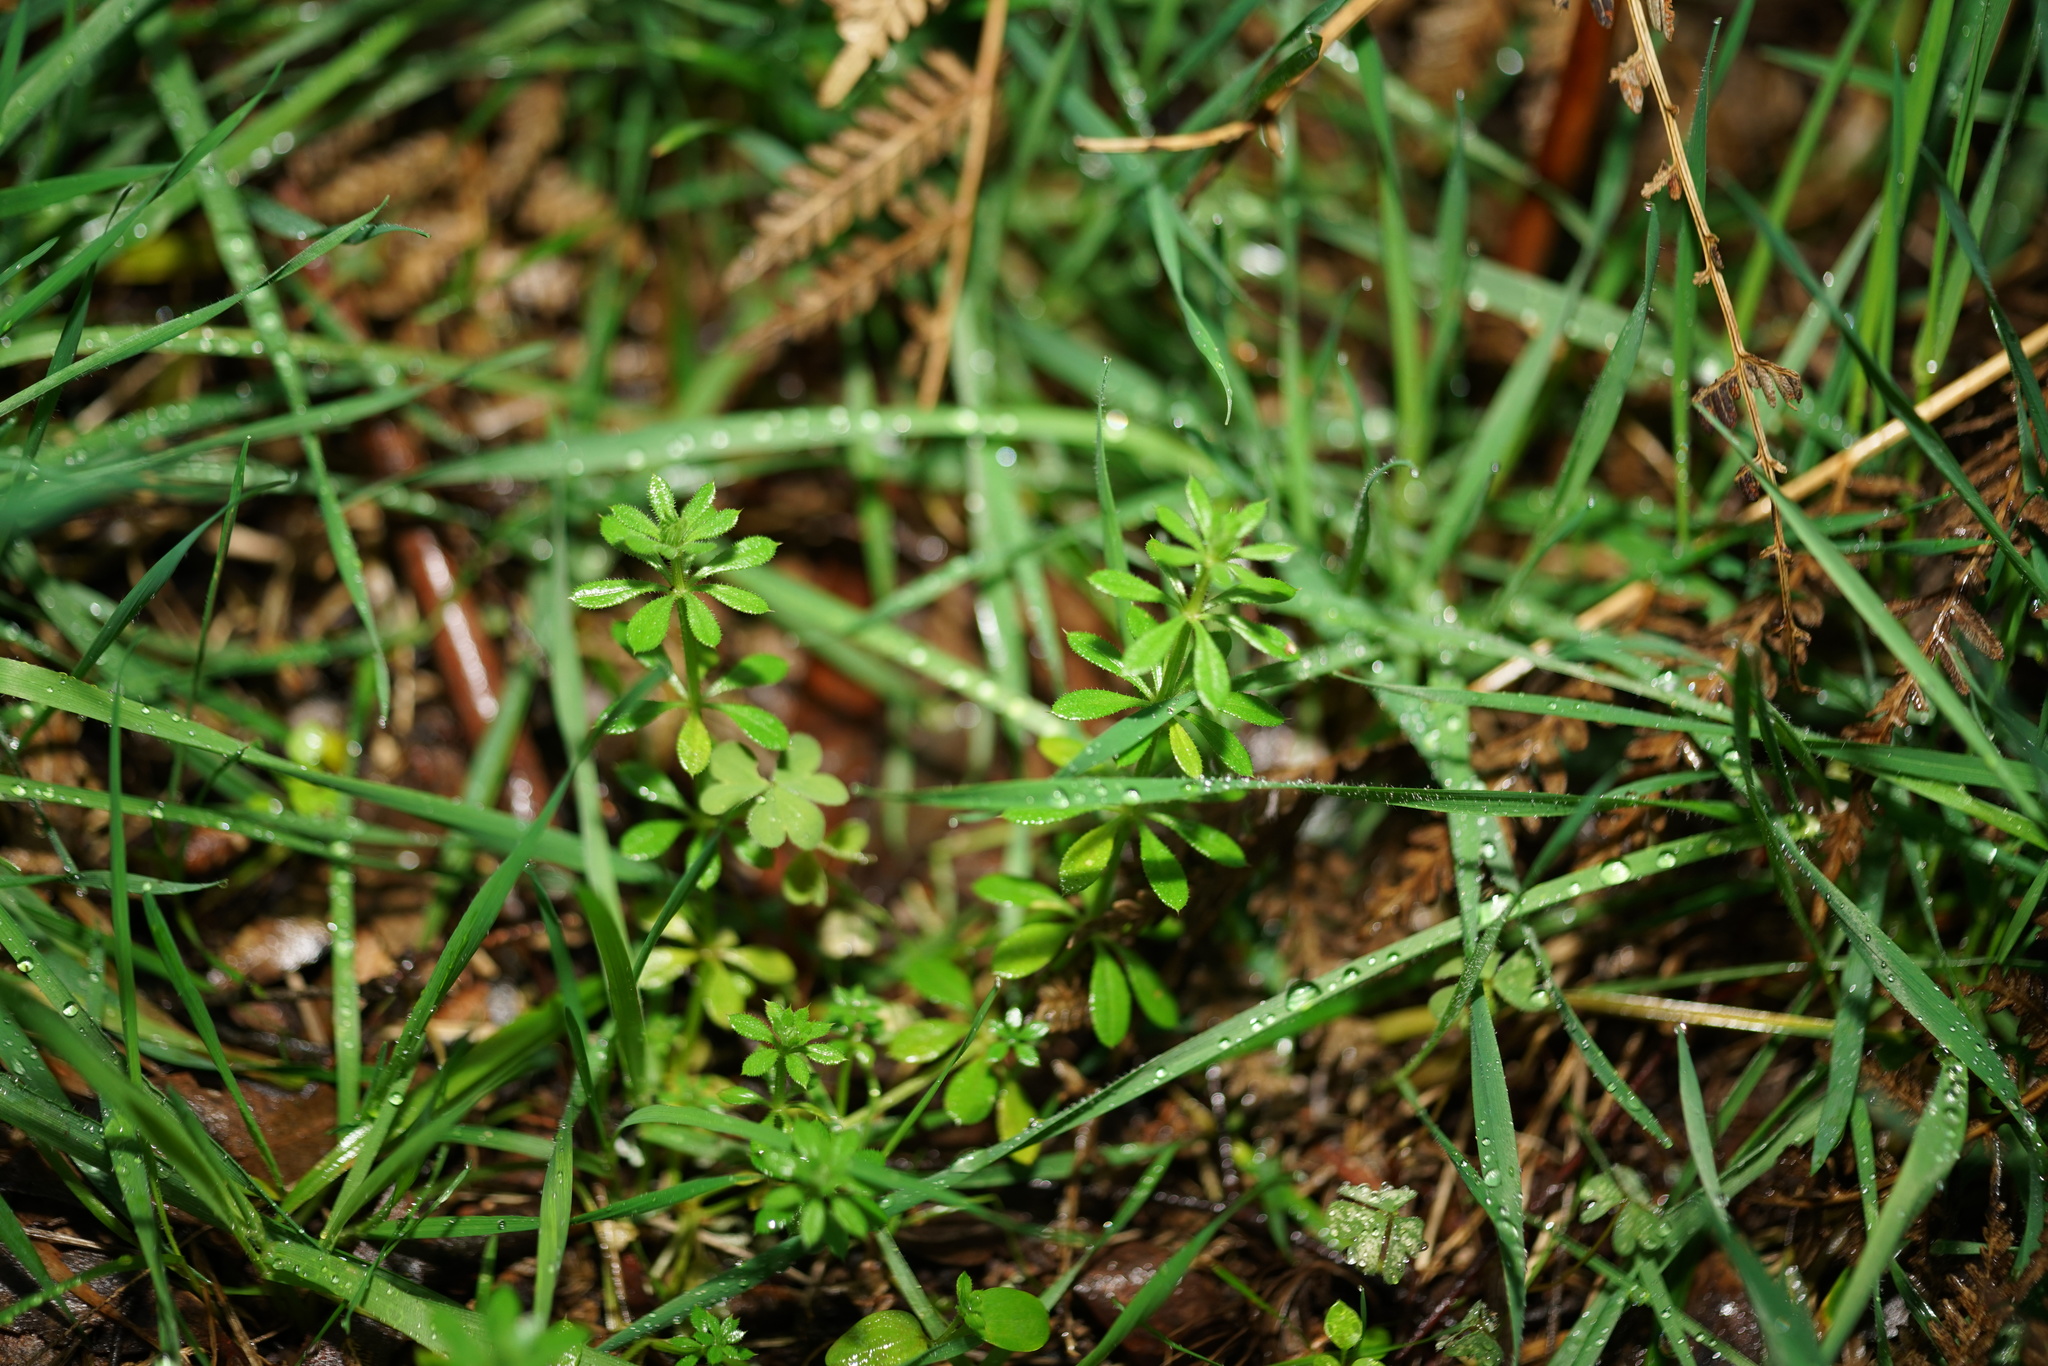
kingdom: Plantae
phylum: Tracheophyta
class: Magnoliopsida
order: Gentianales
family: Rubiaceae
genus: Galium
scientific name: Galium aparine
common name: Cleavers
